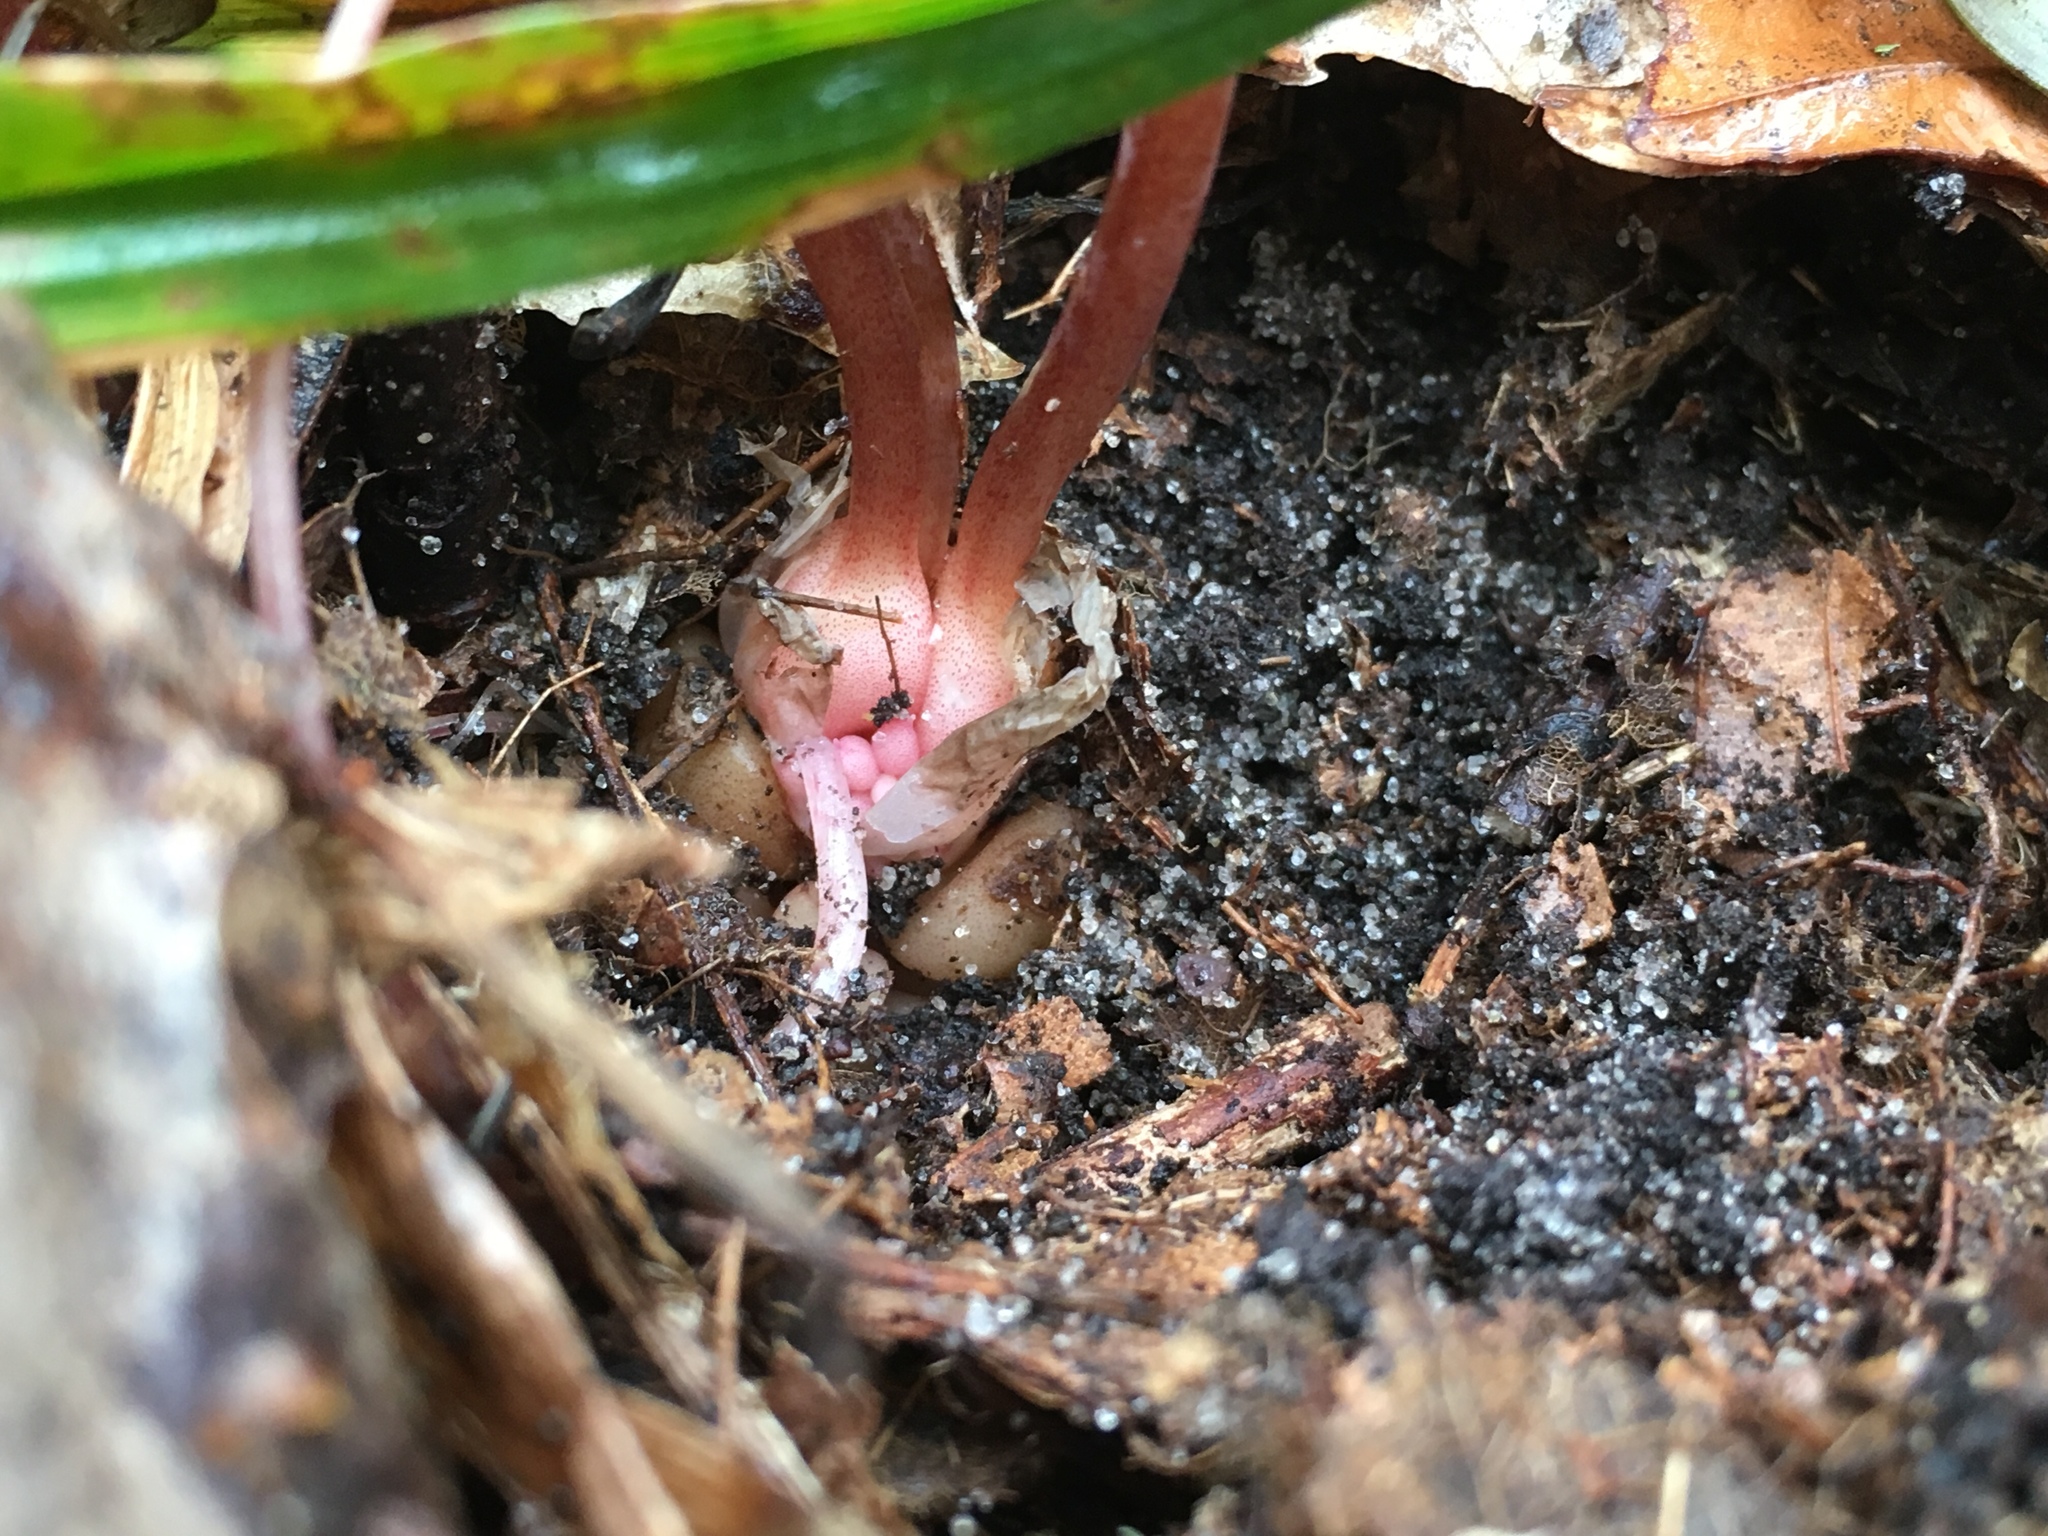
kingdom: Plantae
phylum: Tracheophyta
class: Magnoliopsida
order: Ranunculales
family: Papaveraceae
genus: Dicentra
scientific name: Dicentra cucullaria
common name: Dutchman's breeches
